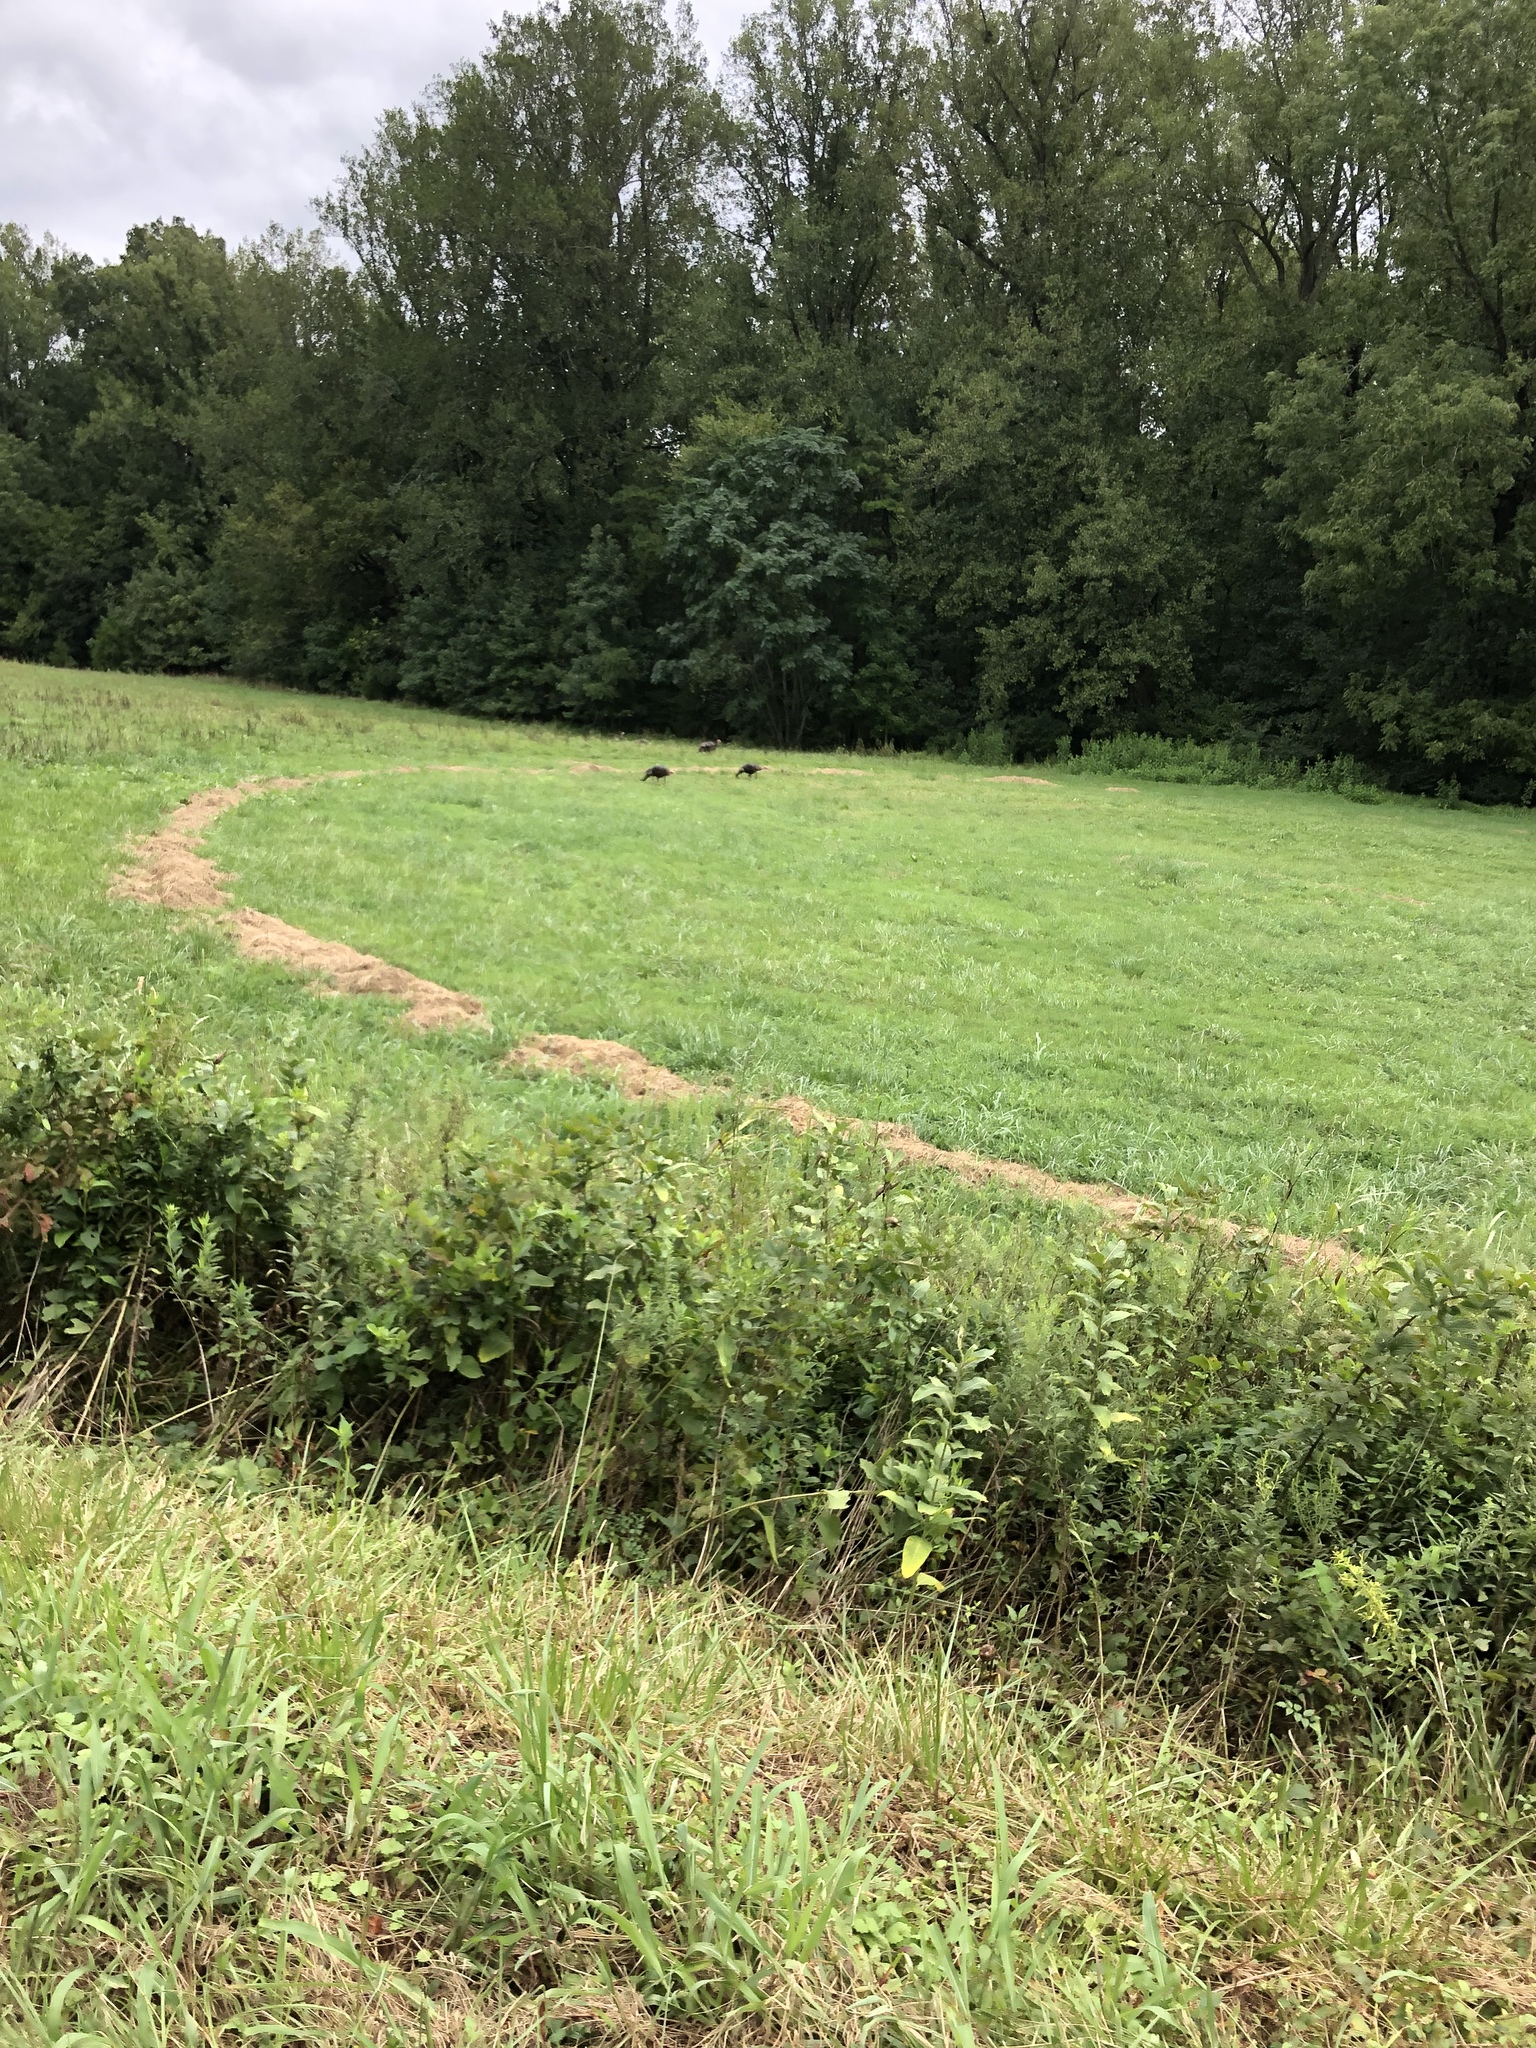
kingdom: Animalia
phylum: Chordata
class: Aves
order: Galliformes
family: Phasianidae
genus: Meleagris
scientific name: Meleagris gallopavo
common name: Wild turkey
